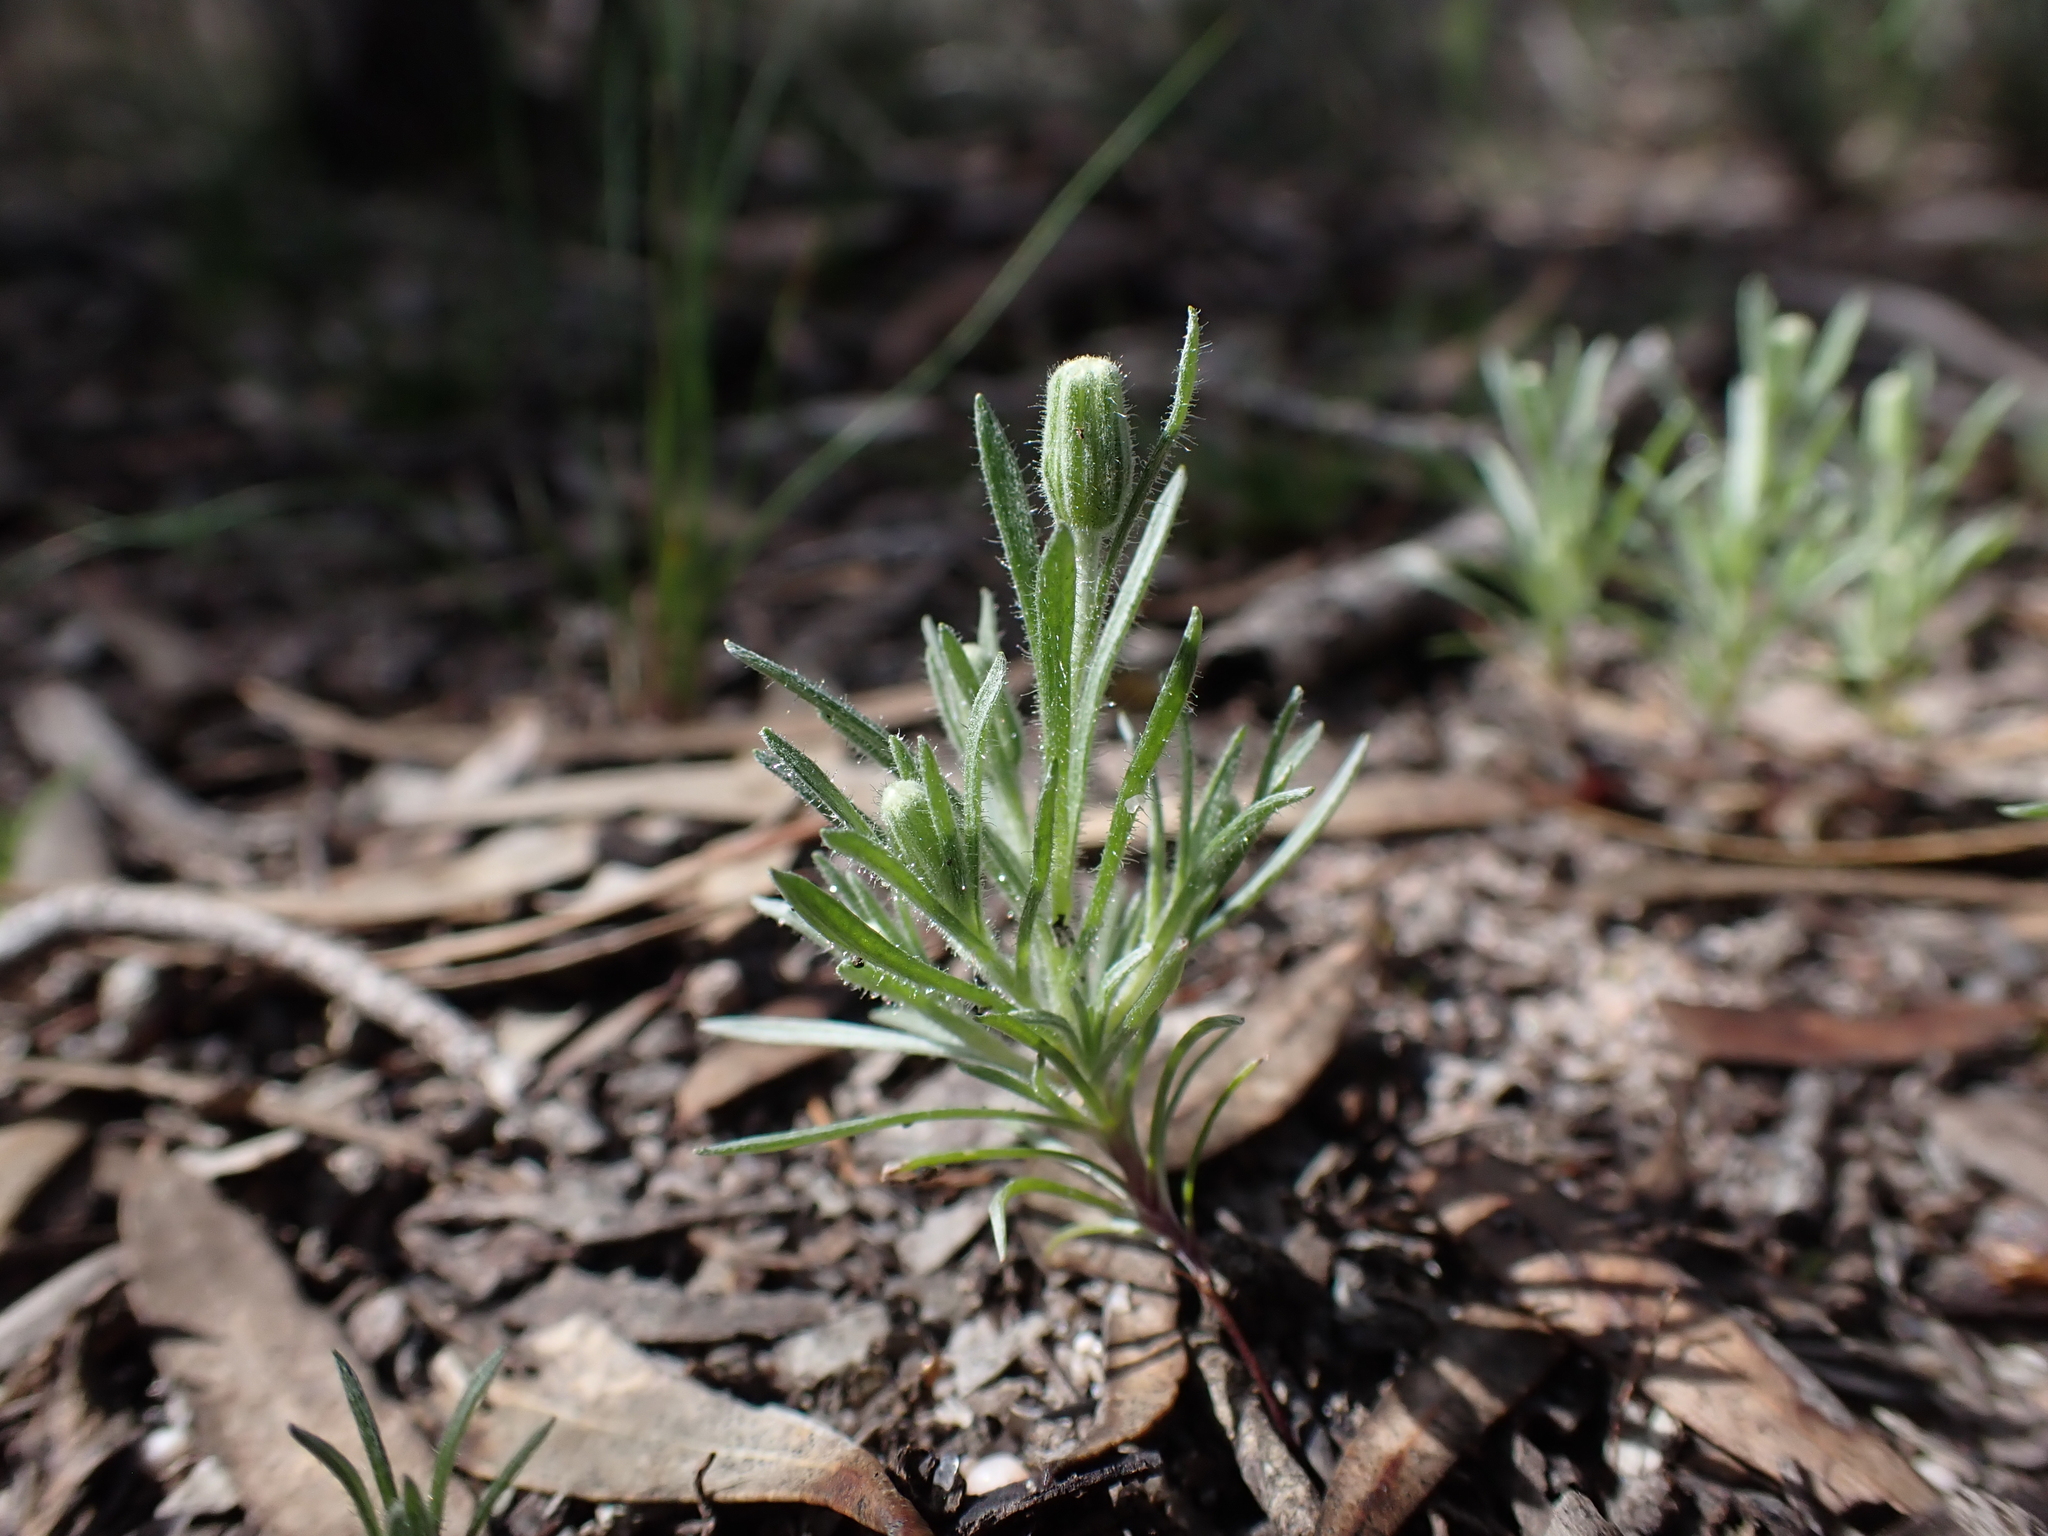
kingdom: Plantae
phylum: Tracheophyta
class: Magnoliopsida
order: Asterales
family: Asteraceae
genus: Millotia
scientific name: Millotia tenuifolia
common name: Soft millotia
